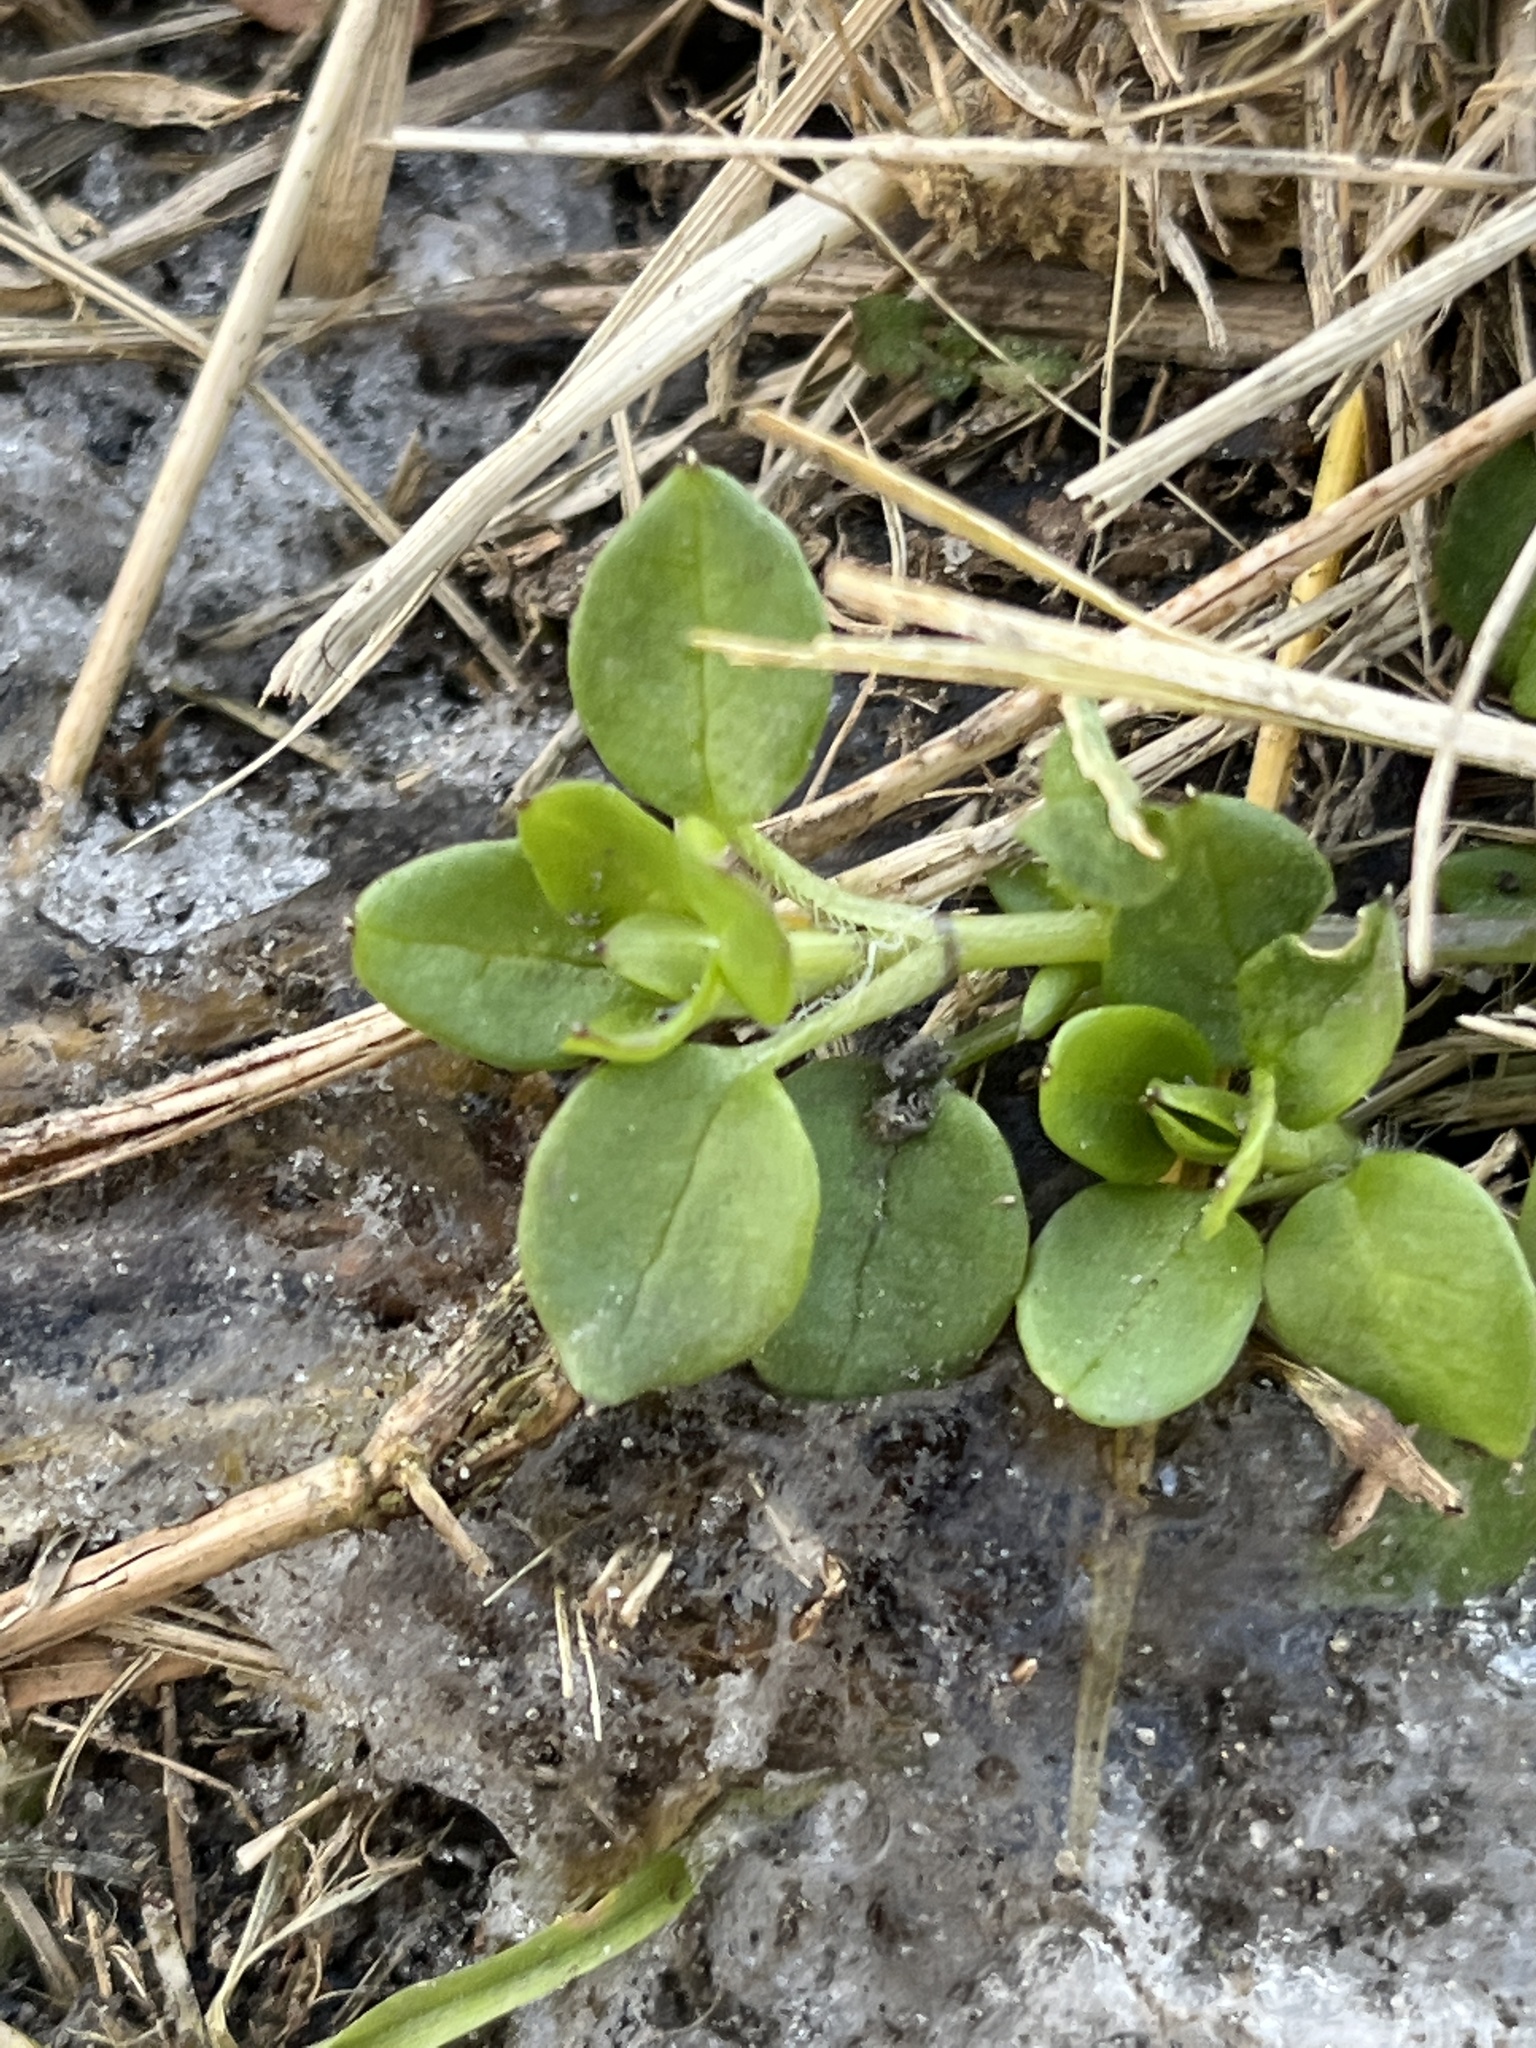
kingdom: Plantae
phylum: Tracheophyta
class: Magnoliopsida
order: Caryophyllales
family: Caryophyllaceae
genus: Stellaria
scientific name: Stellaria media
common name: Common chickweed
